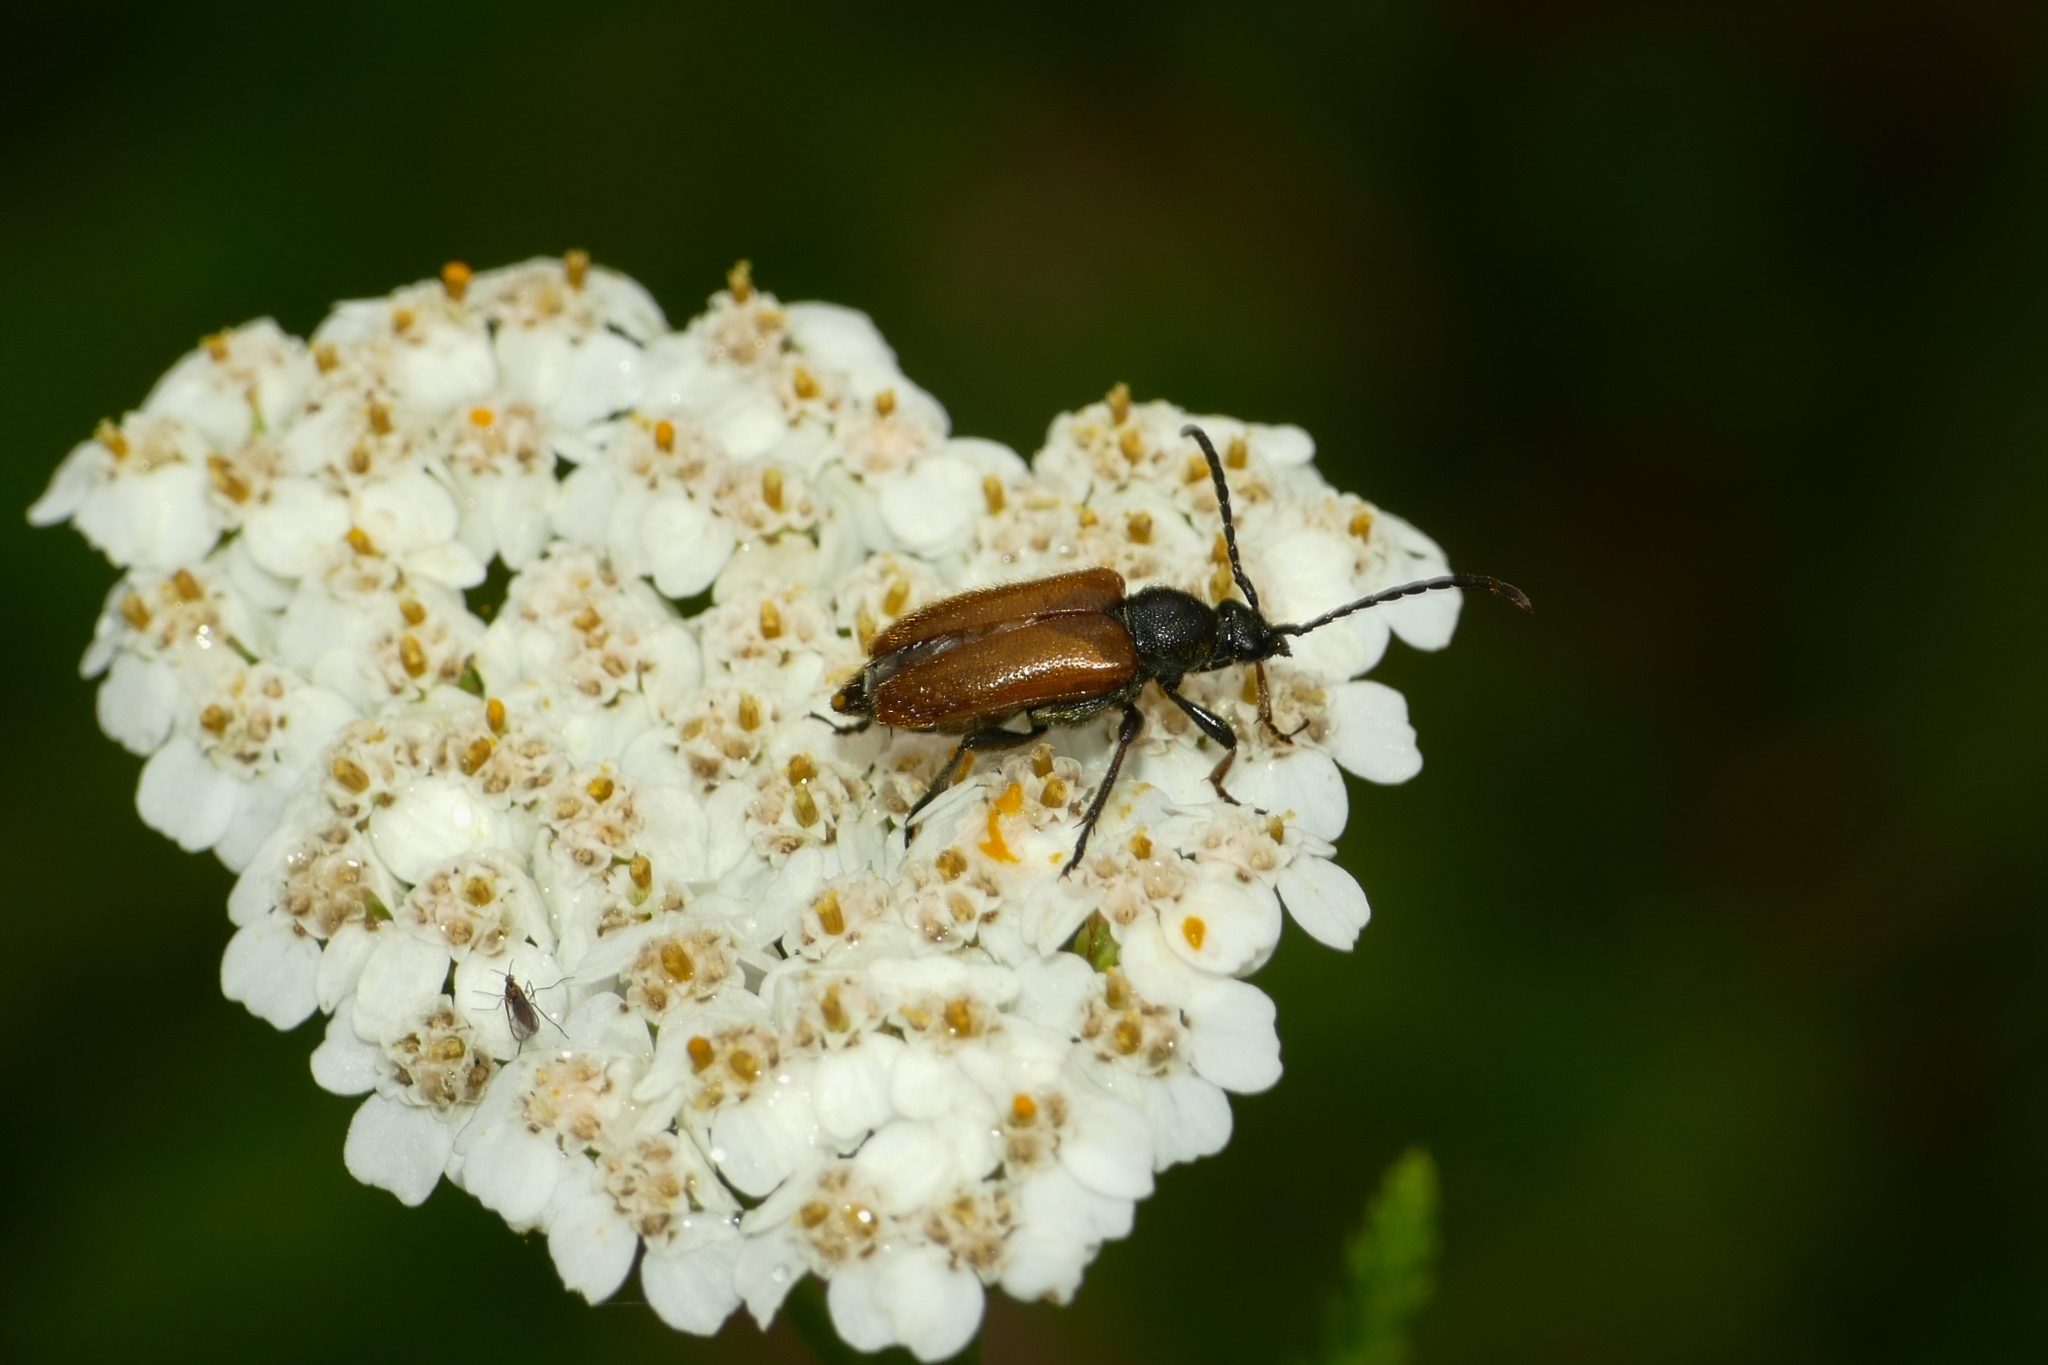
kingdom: Animalia
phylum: Arthropoda
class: Insecta
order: Coleoptera
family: Cerambycidae
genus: Pseudovadonia
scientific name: Pseudovadonia livida
